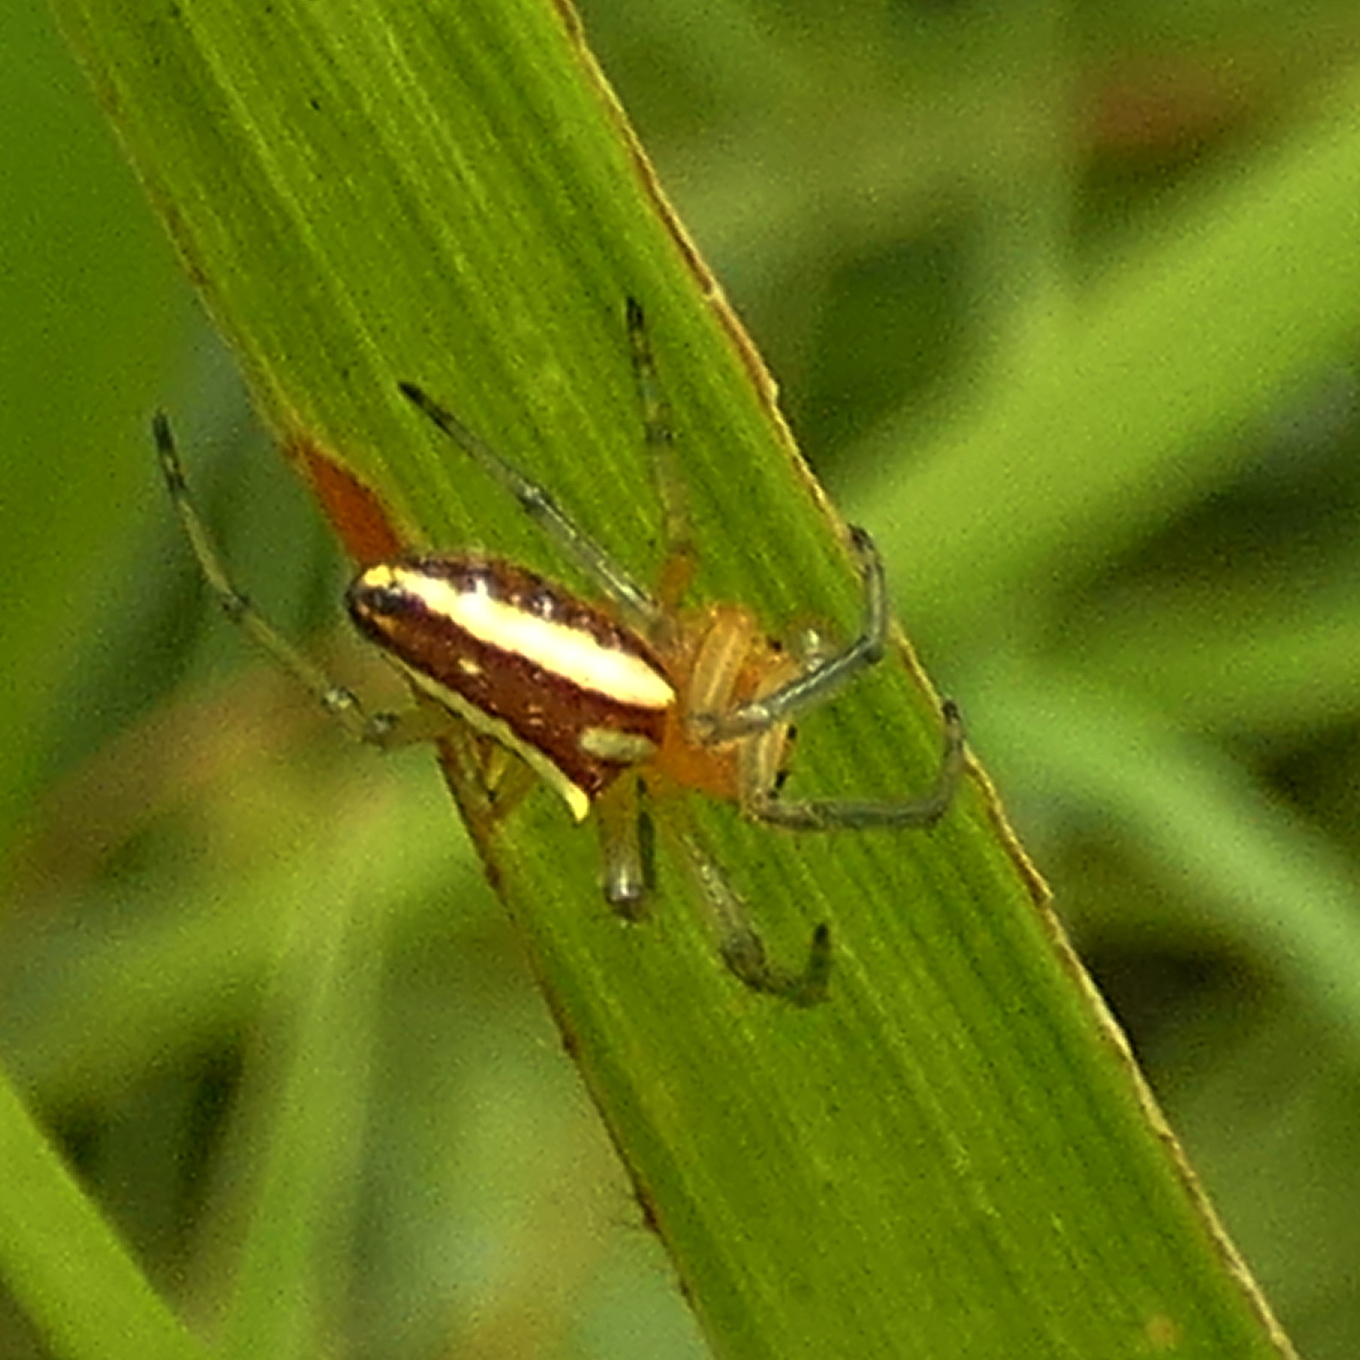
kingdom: Animalia
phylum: Arthropoda
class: Arachnida
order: Araneae
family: Araneidae
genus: Alpaida
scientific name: Alpaida bicornuta
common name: Orb weavers
